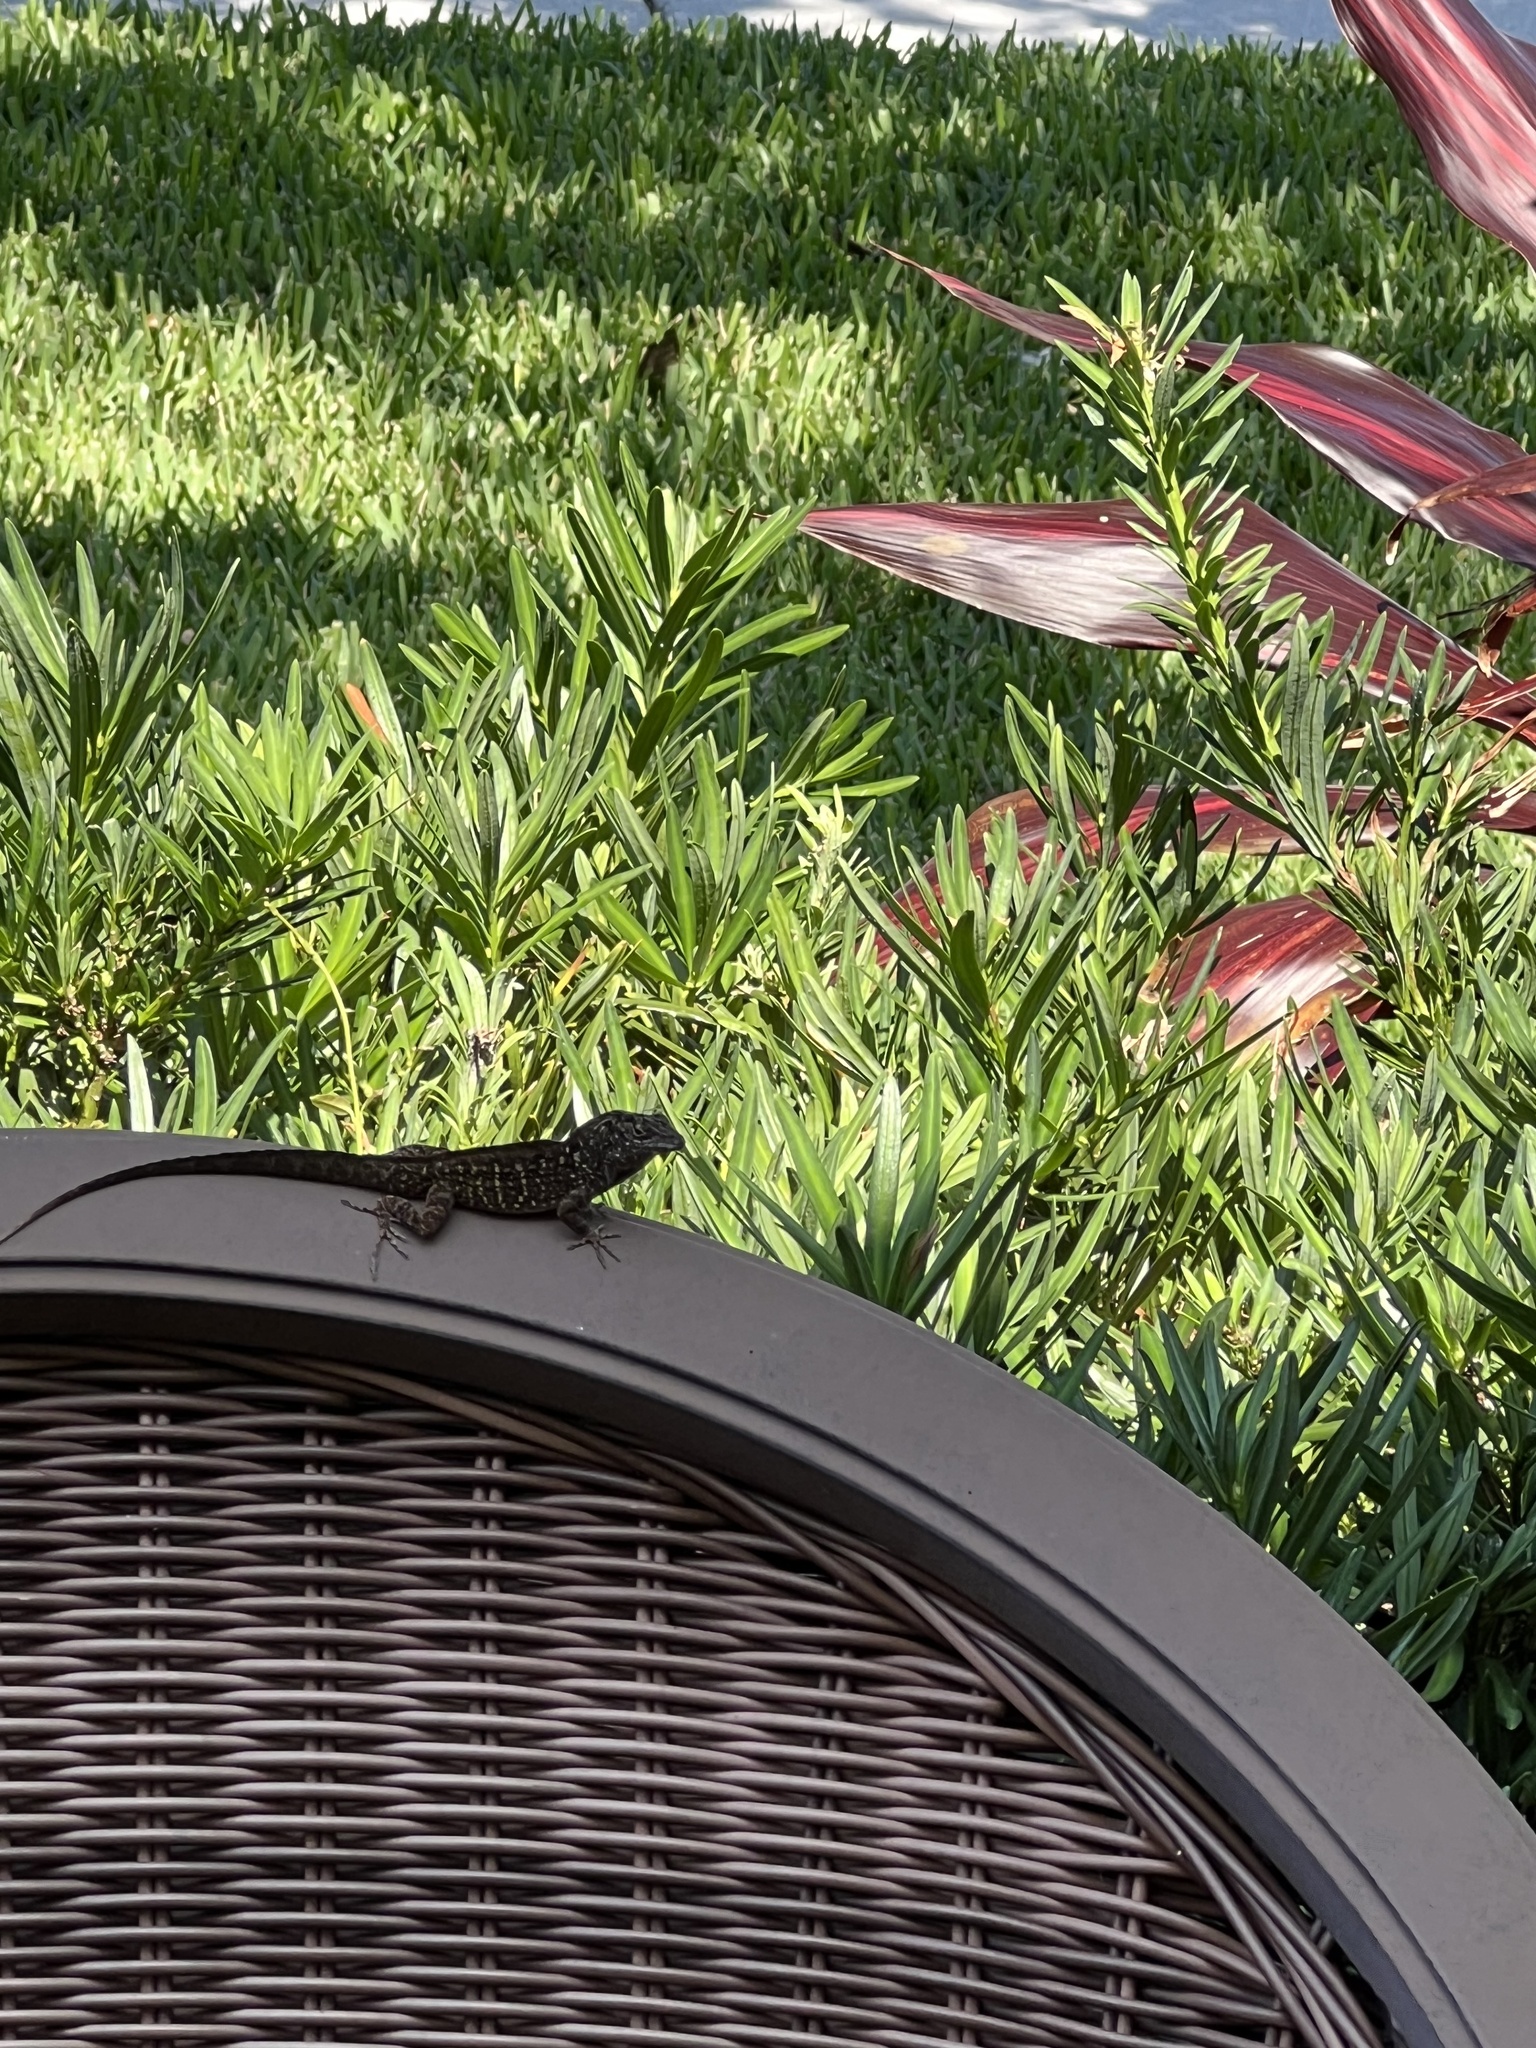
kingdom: Animalia
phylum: Chordata
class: Squamata
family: Dactyloidae
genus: Anolis
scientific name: Anolis sagrei
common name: Brown anole
